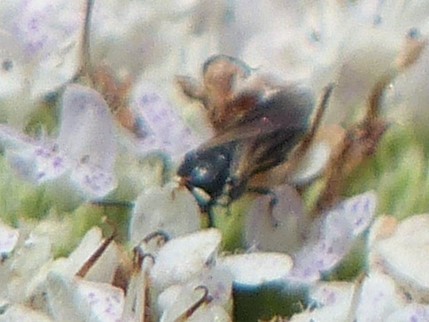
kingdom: Animalia
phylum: Arthropoda
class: Insecta
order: Hymenoptera
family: Colletidae
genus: Hylaeus
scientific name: Hylaeus leptocephalus
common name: Slender-faced masked bee
